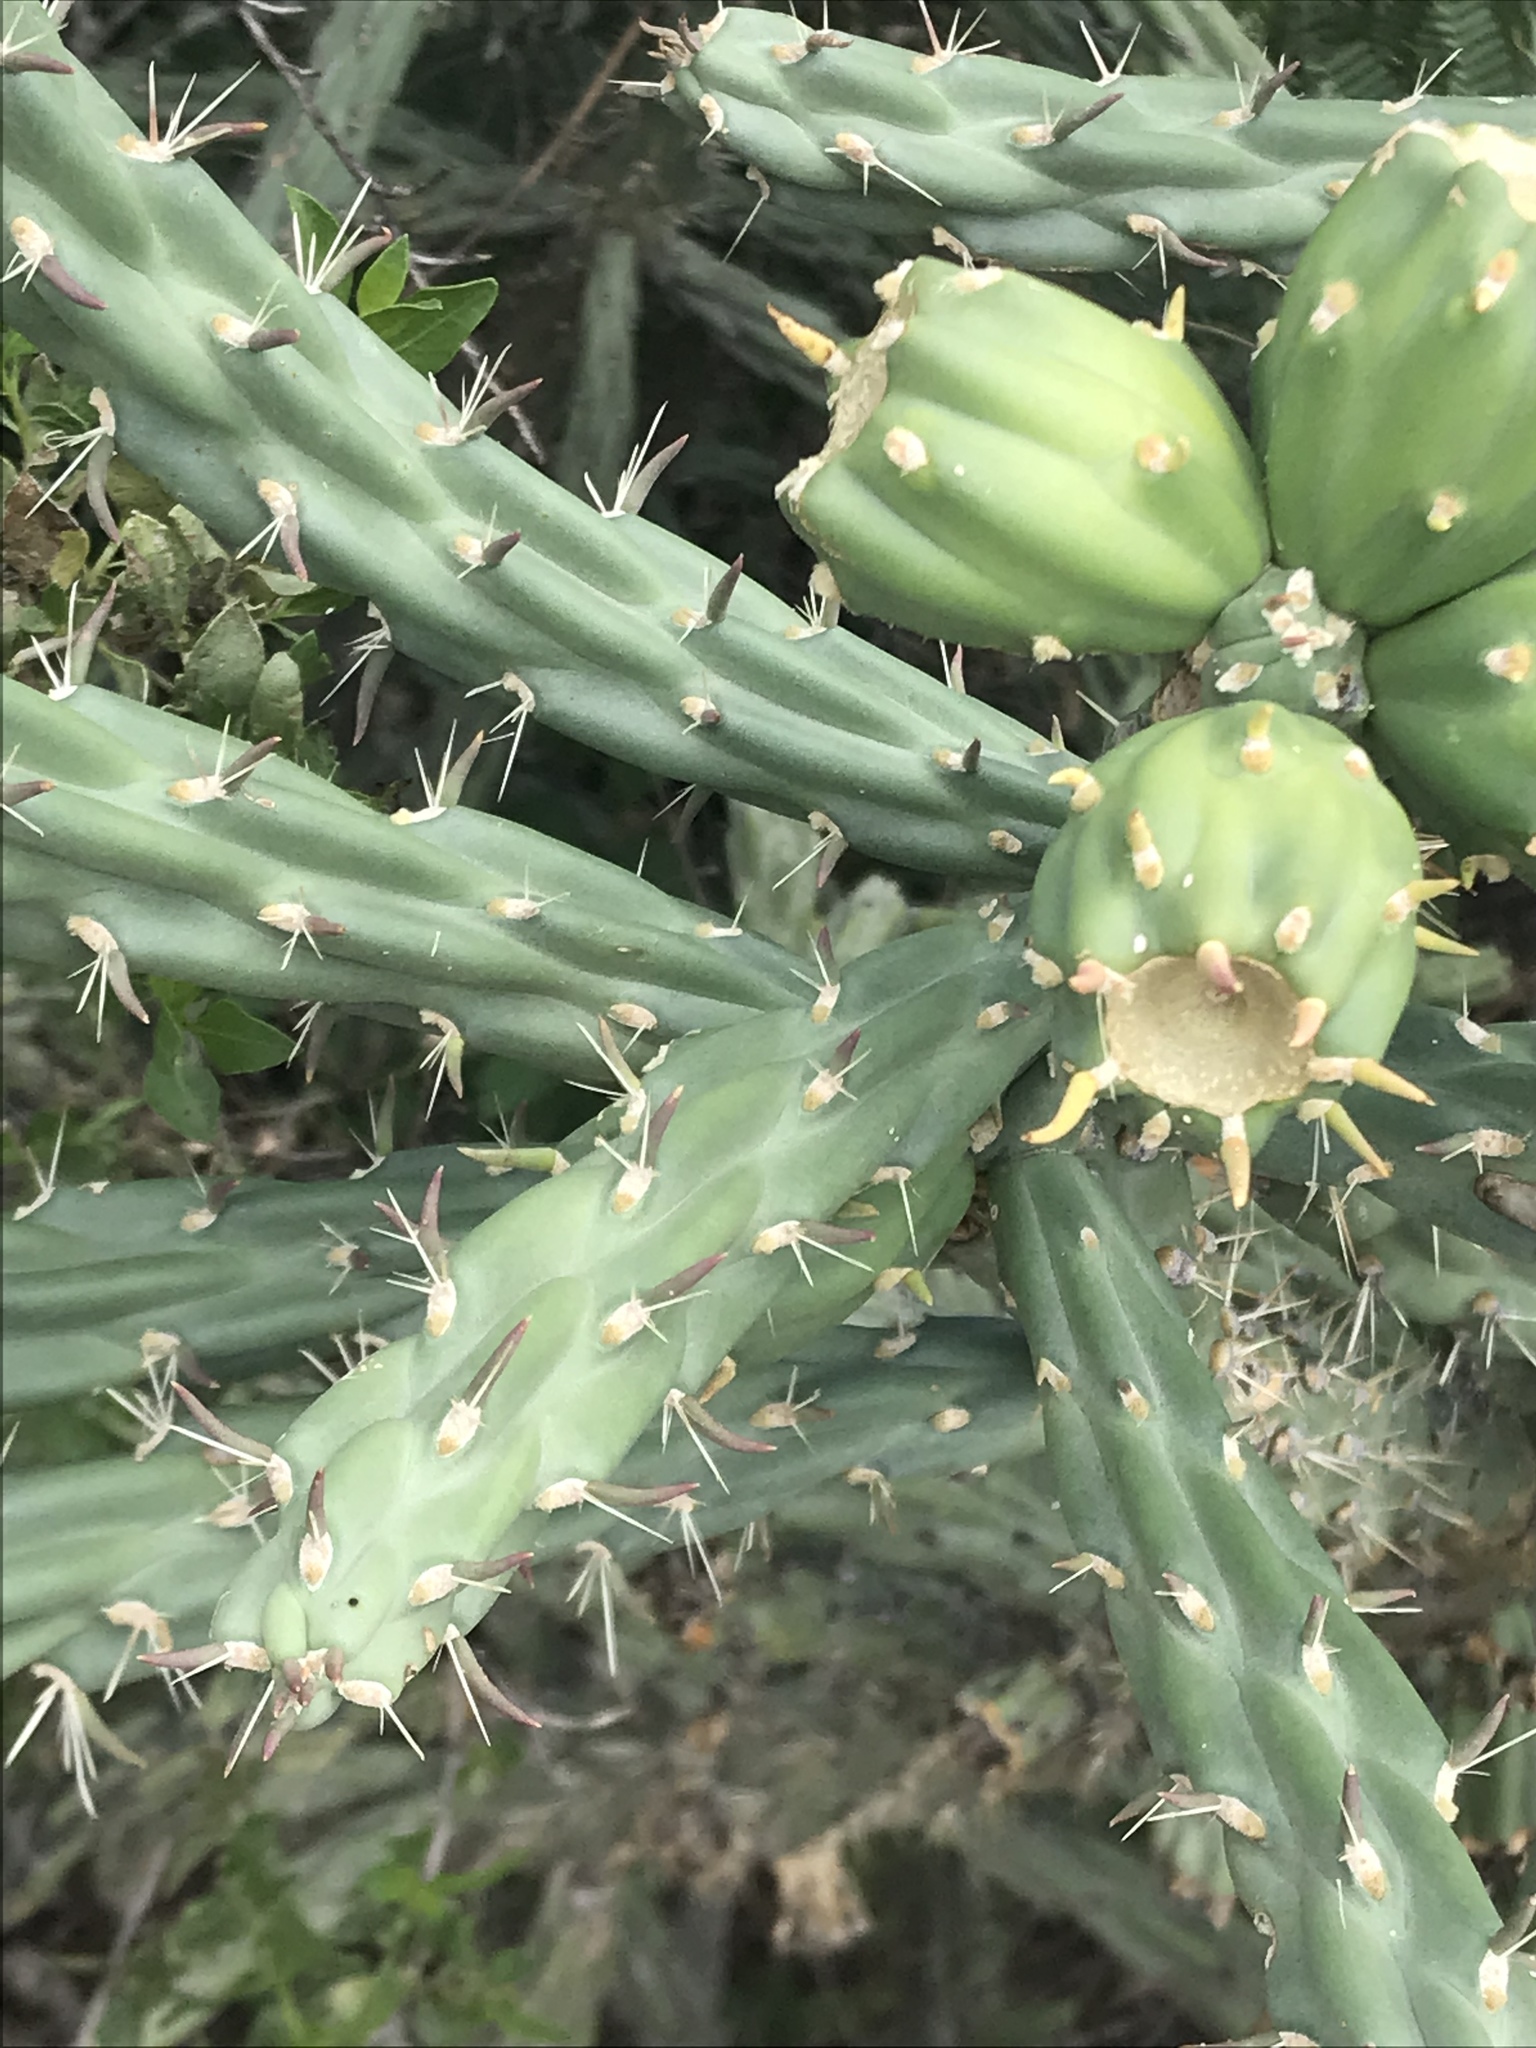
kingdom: Plantae
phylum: Tracheophyta
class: Magnoliopsida
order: Caryophyllales
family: Cactaceae
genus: Cylindropuntia
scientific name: Cylindropuntia imbricata
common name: Candelabrum cactus
